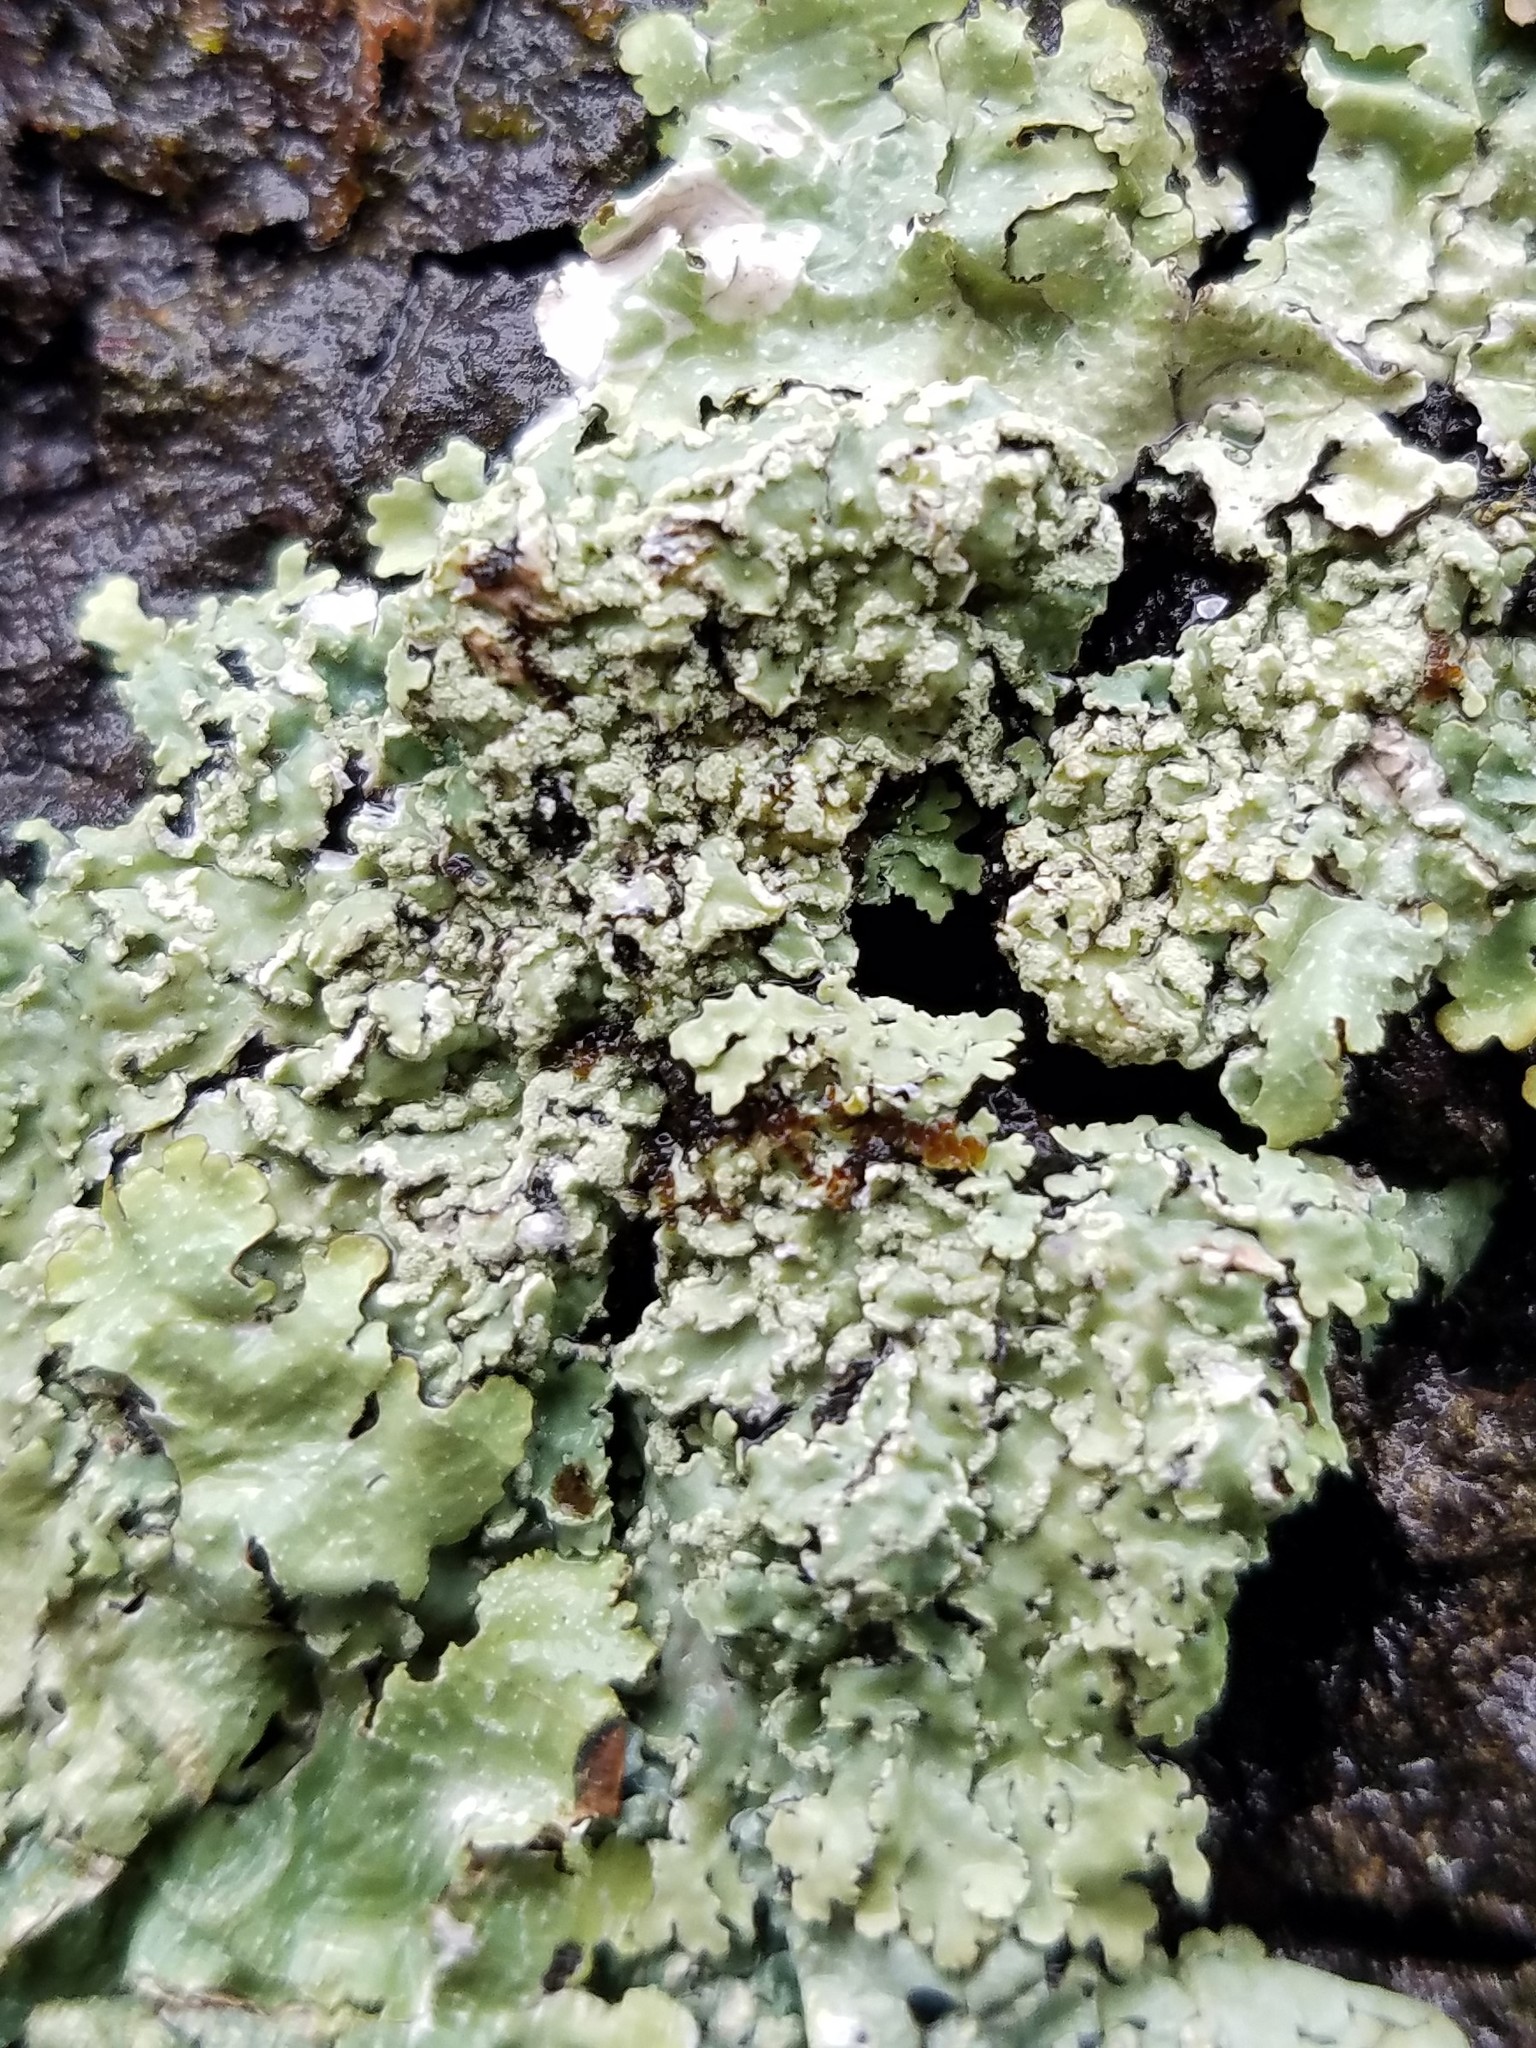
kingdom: Fungi
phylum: Ascomycota
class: Lecanoromycetes
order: Caliciales
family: Physciaceae
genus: Polyblastidium
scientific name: Polyblastidium albicans
